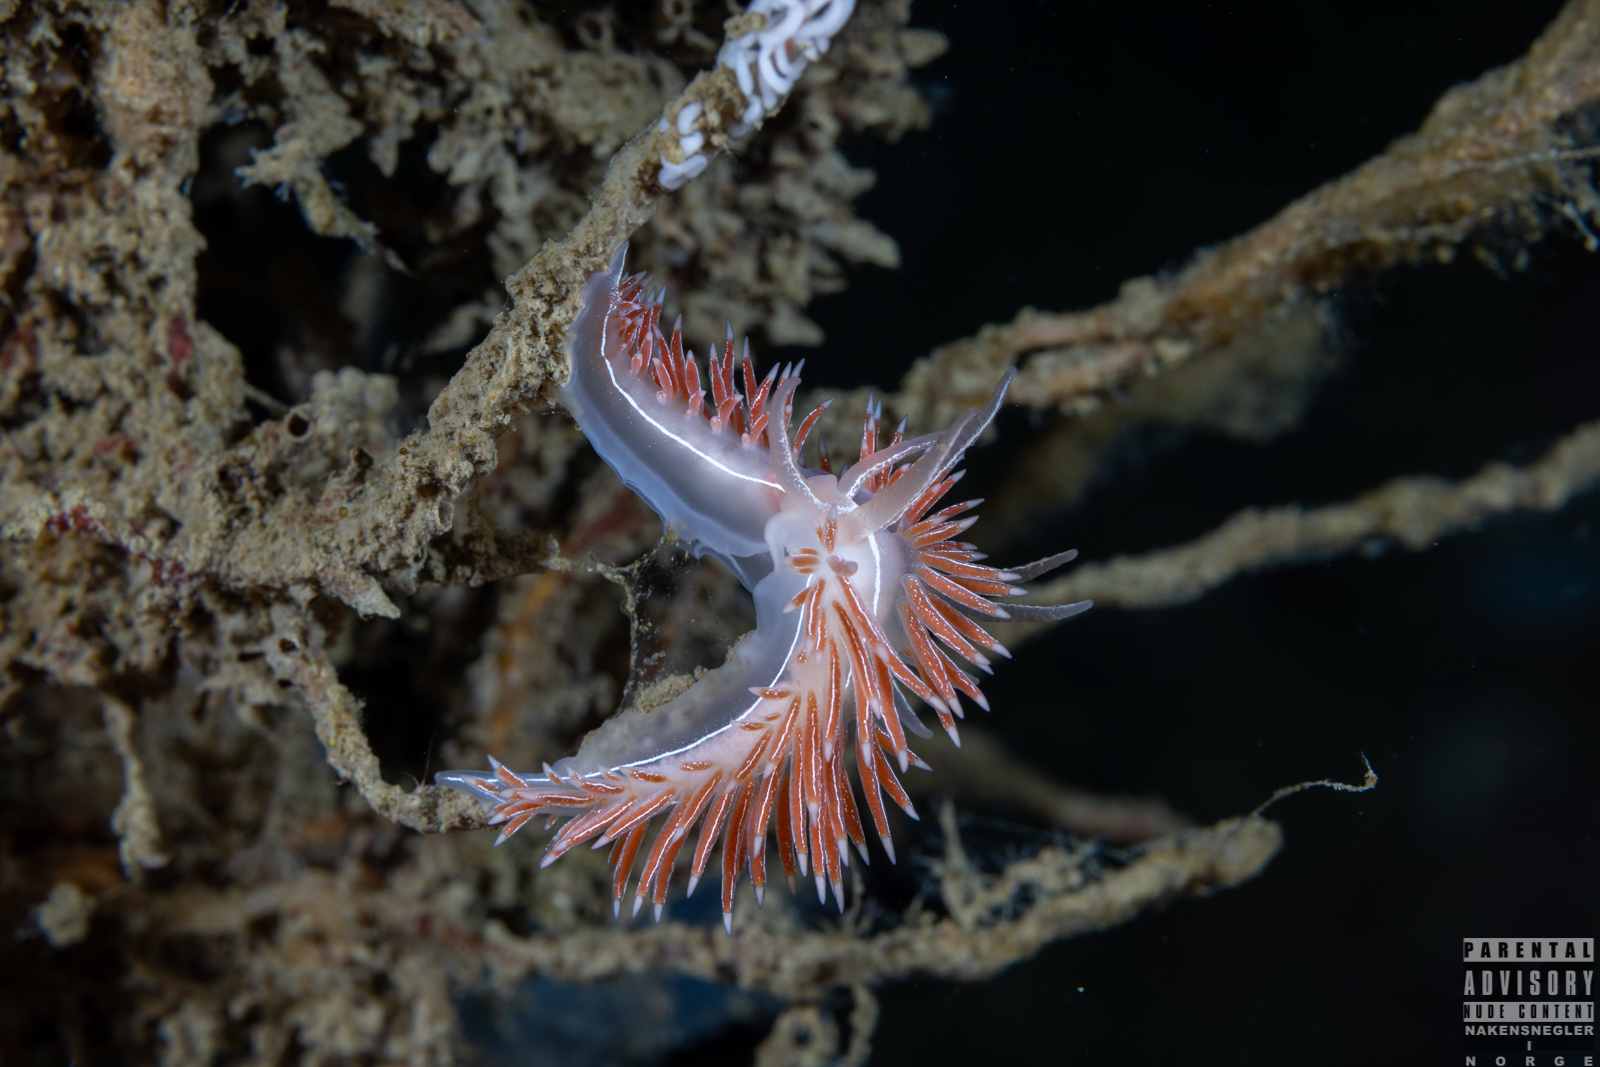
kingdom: Animalia
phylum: Mollusca
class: Gastropoda
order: Nudibranchia
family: Coryphellidae
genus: Coryphella
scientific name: Coryphella chriskaugei
